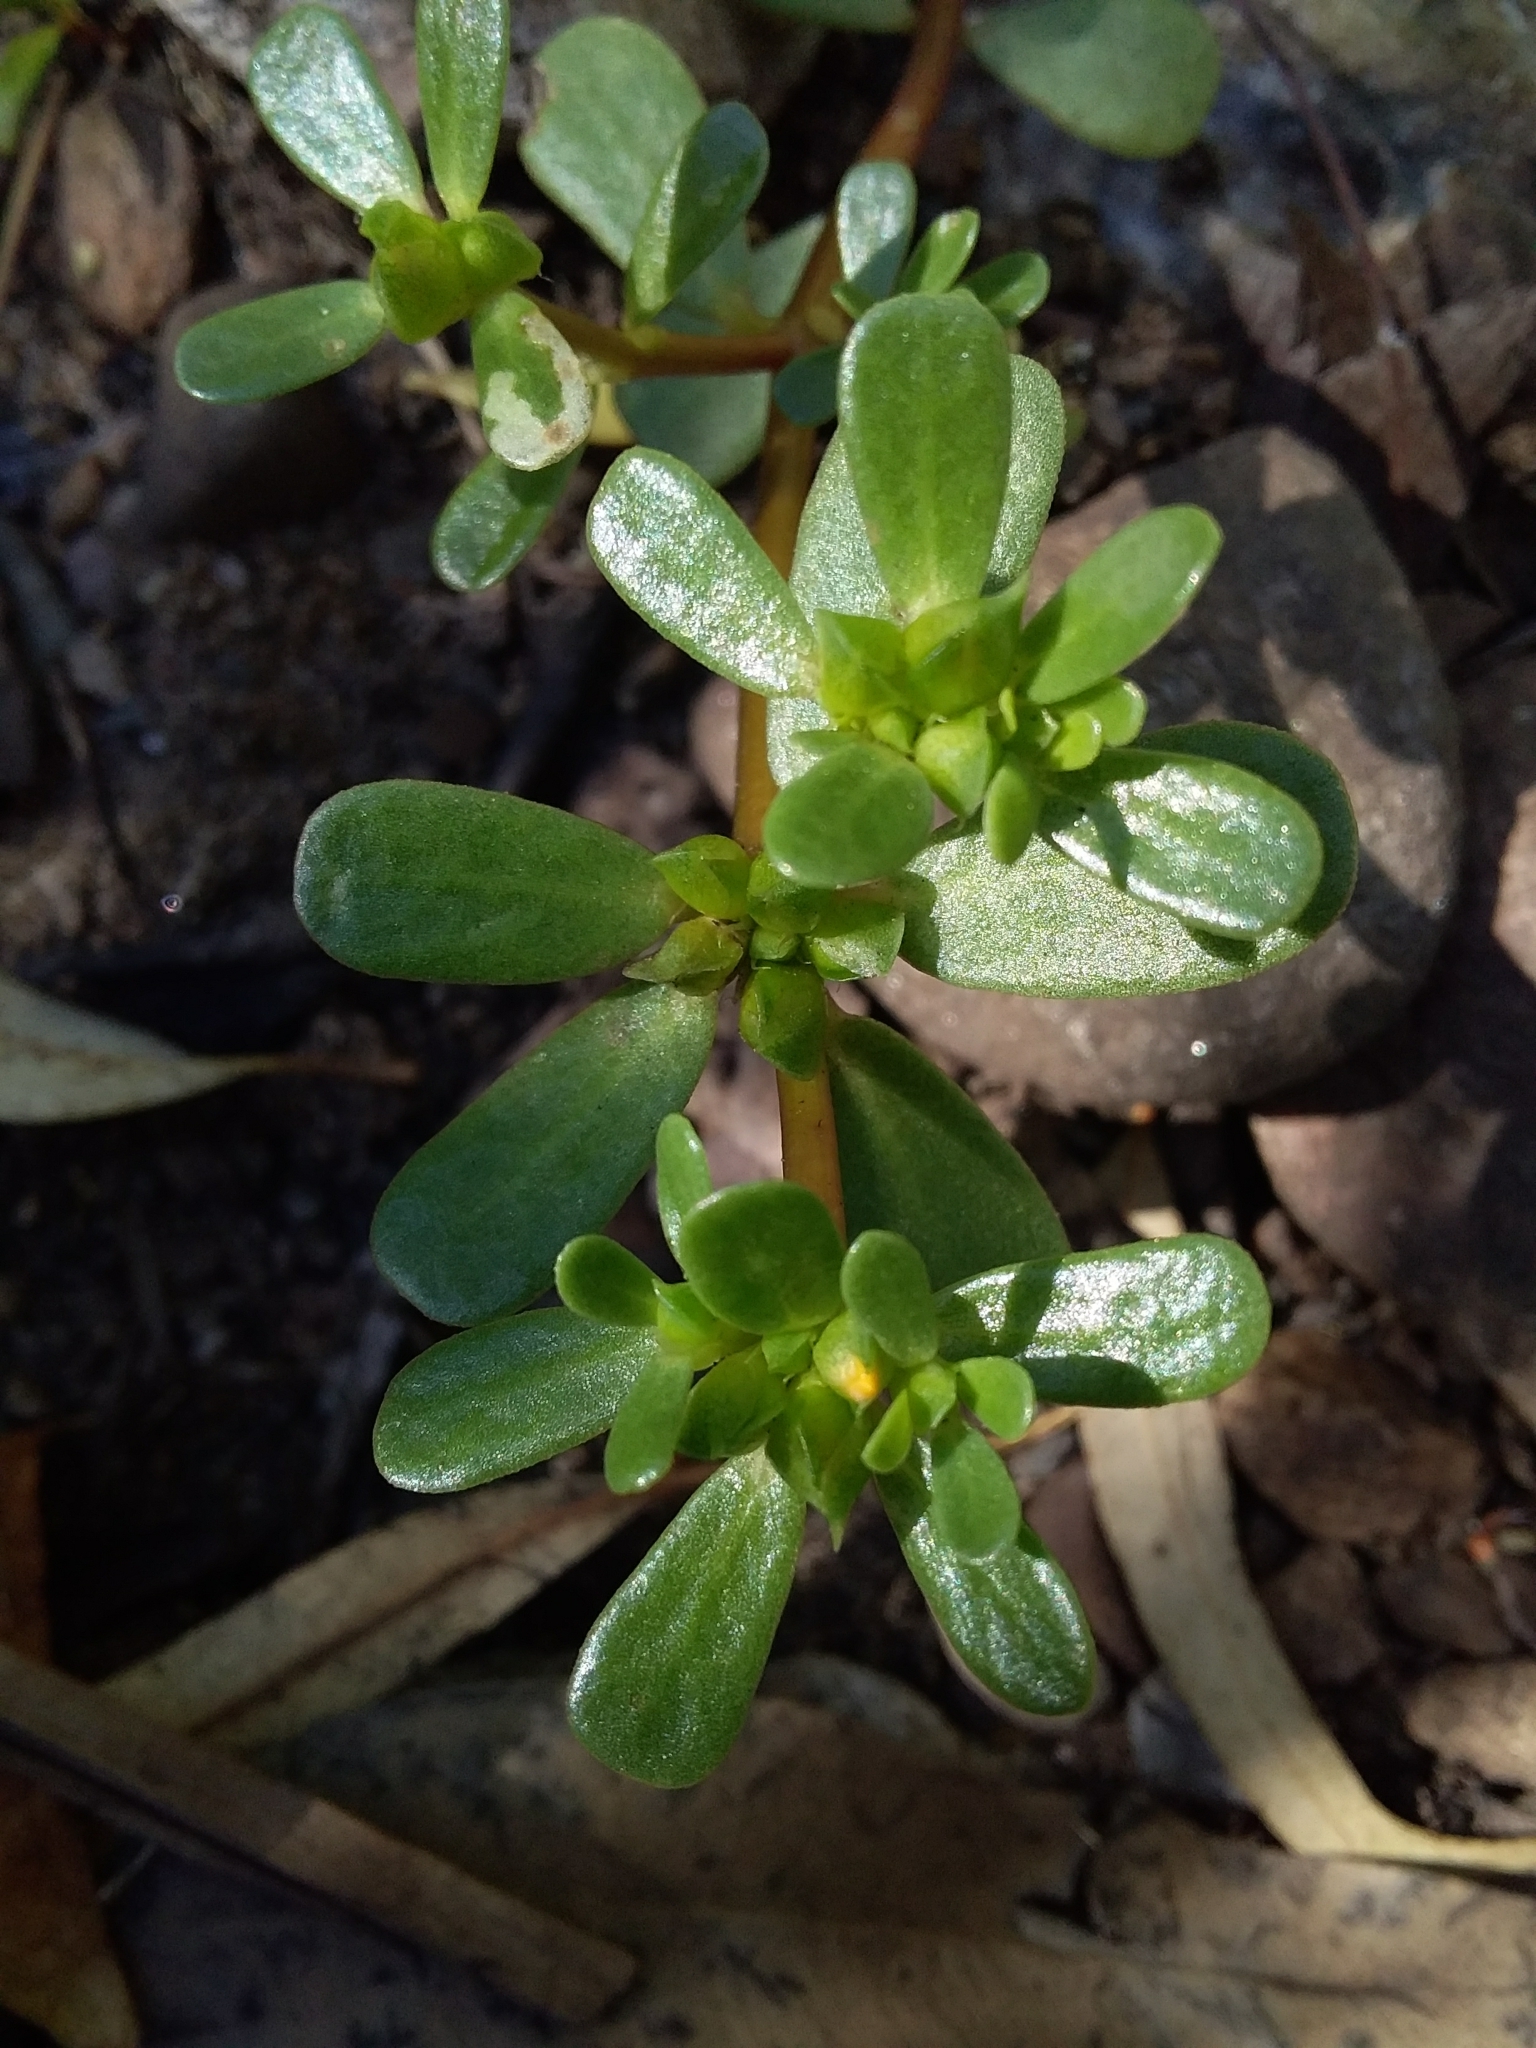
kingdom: Plantae
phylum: Tracheophyta
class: Magnoliopsida
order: Caryophyllales
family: Portulacaceae
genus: Portulaca
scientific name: Portulaca oleracea
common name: Common purslane
